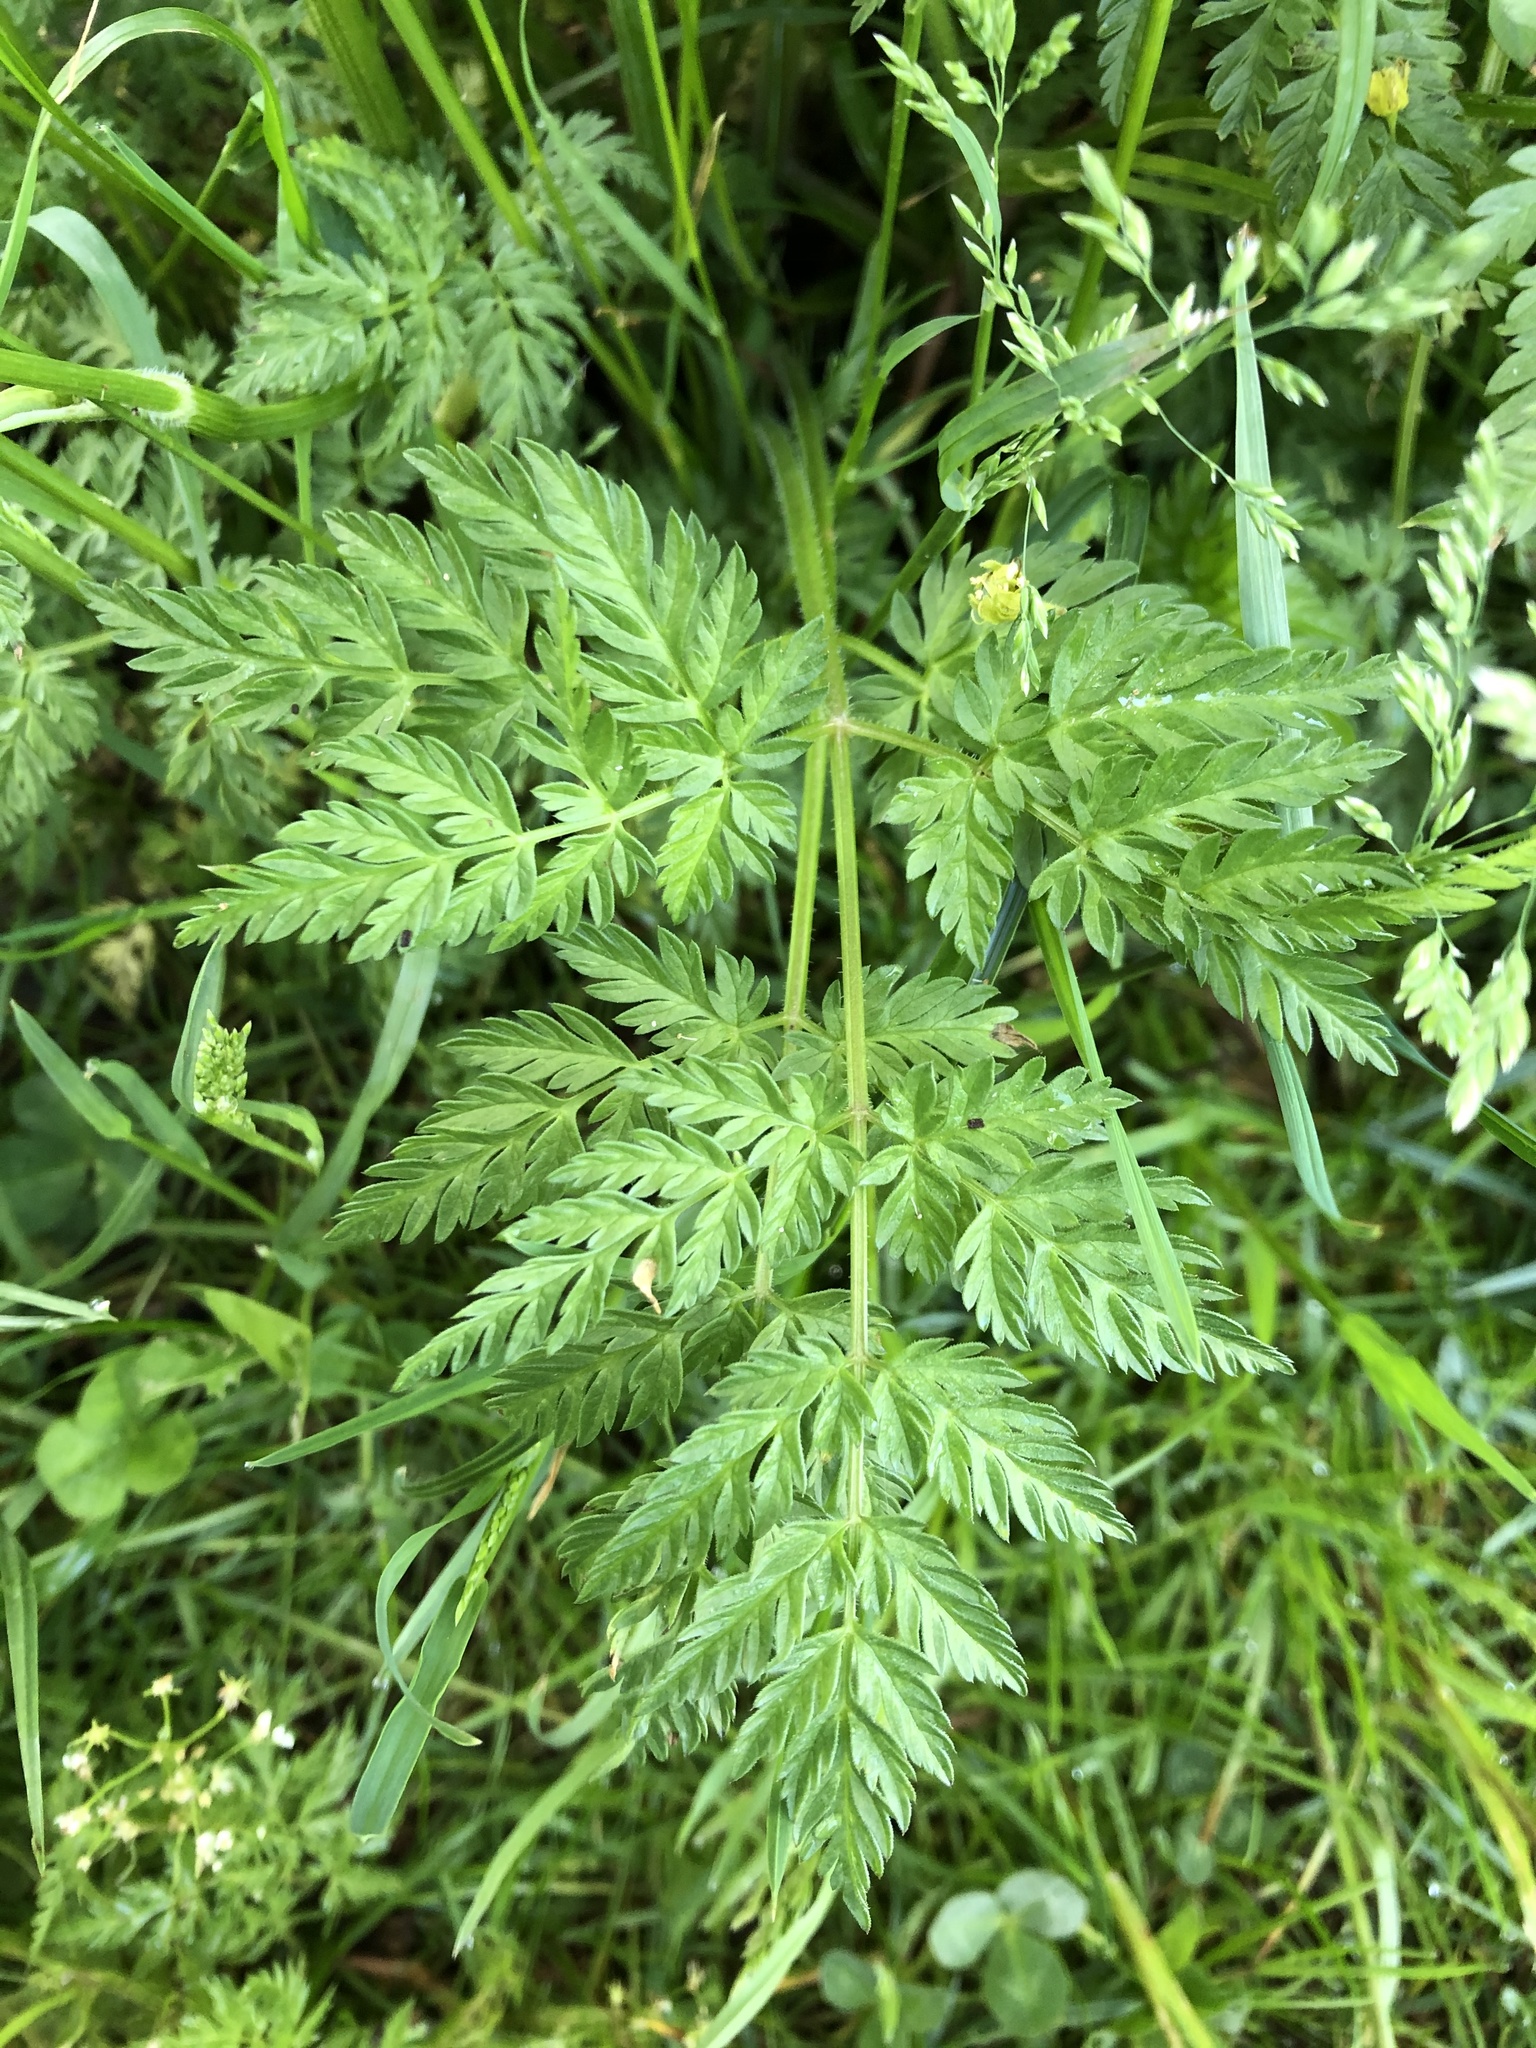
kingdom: Plantae
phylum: Tracheophyta
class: Magnoliopsida
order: Apiales
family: Apiaceae
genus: Anthriscus
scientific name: Anthriscus sylvestris
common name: Cow parsley
